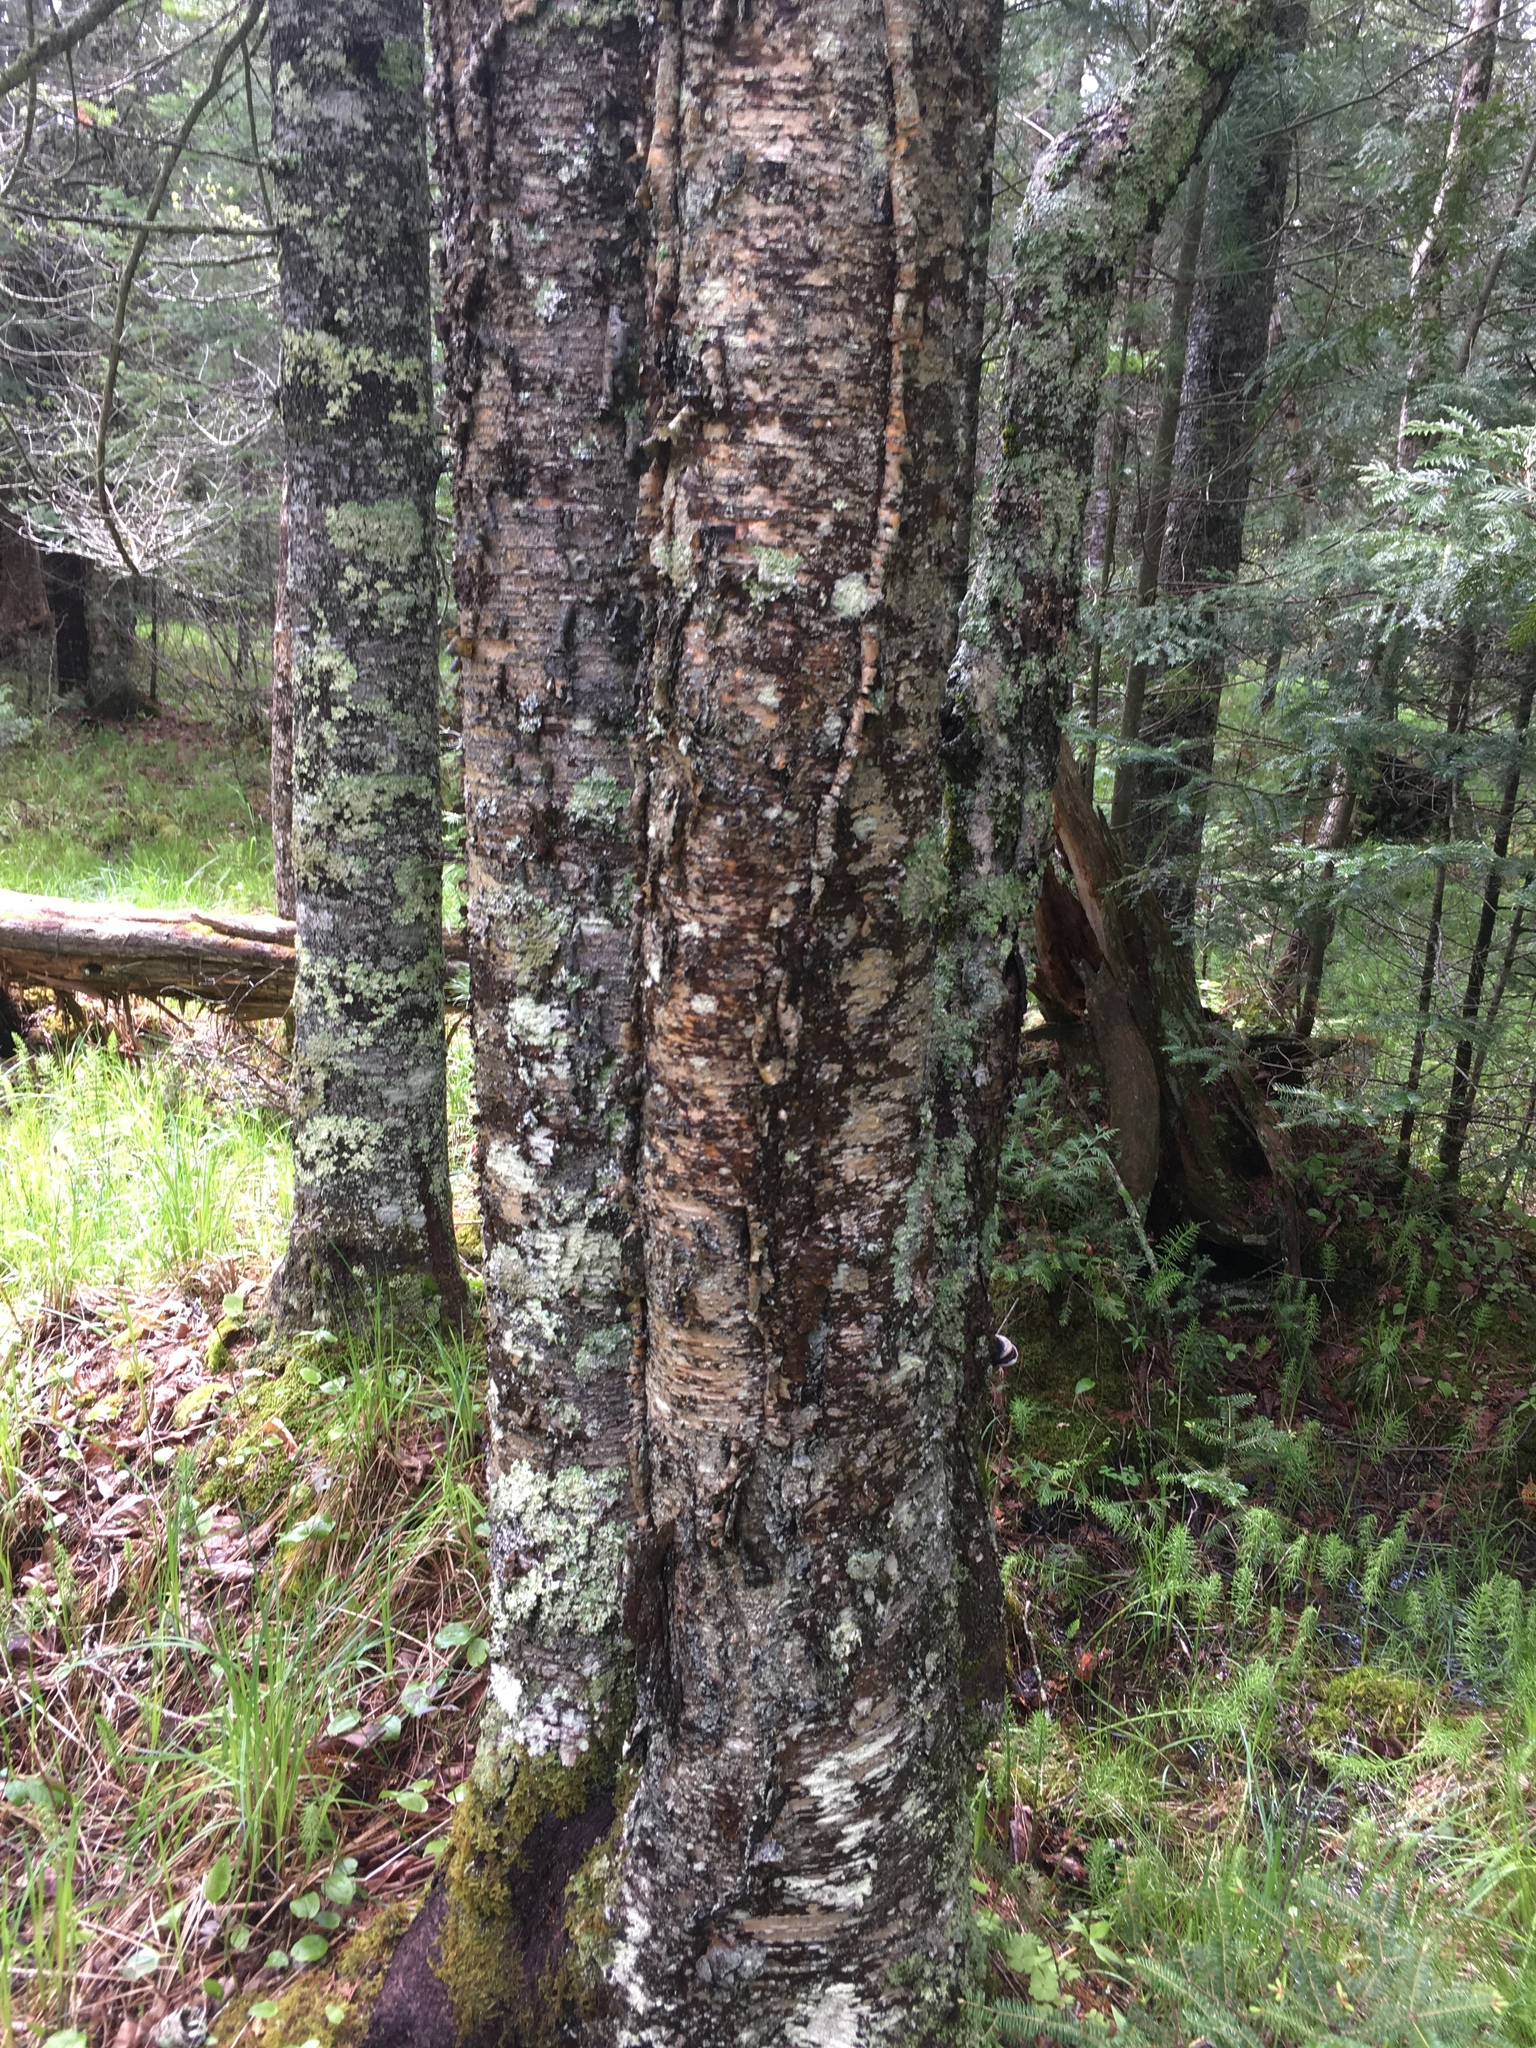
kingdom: Plantae
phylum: Tracheophyta
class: Magnoliopsida
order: Fagales
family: Betulaceae
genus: Betula
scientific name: Betula alleghaniensis
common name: Yellow birch
